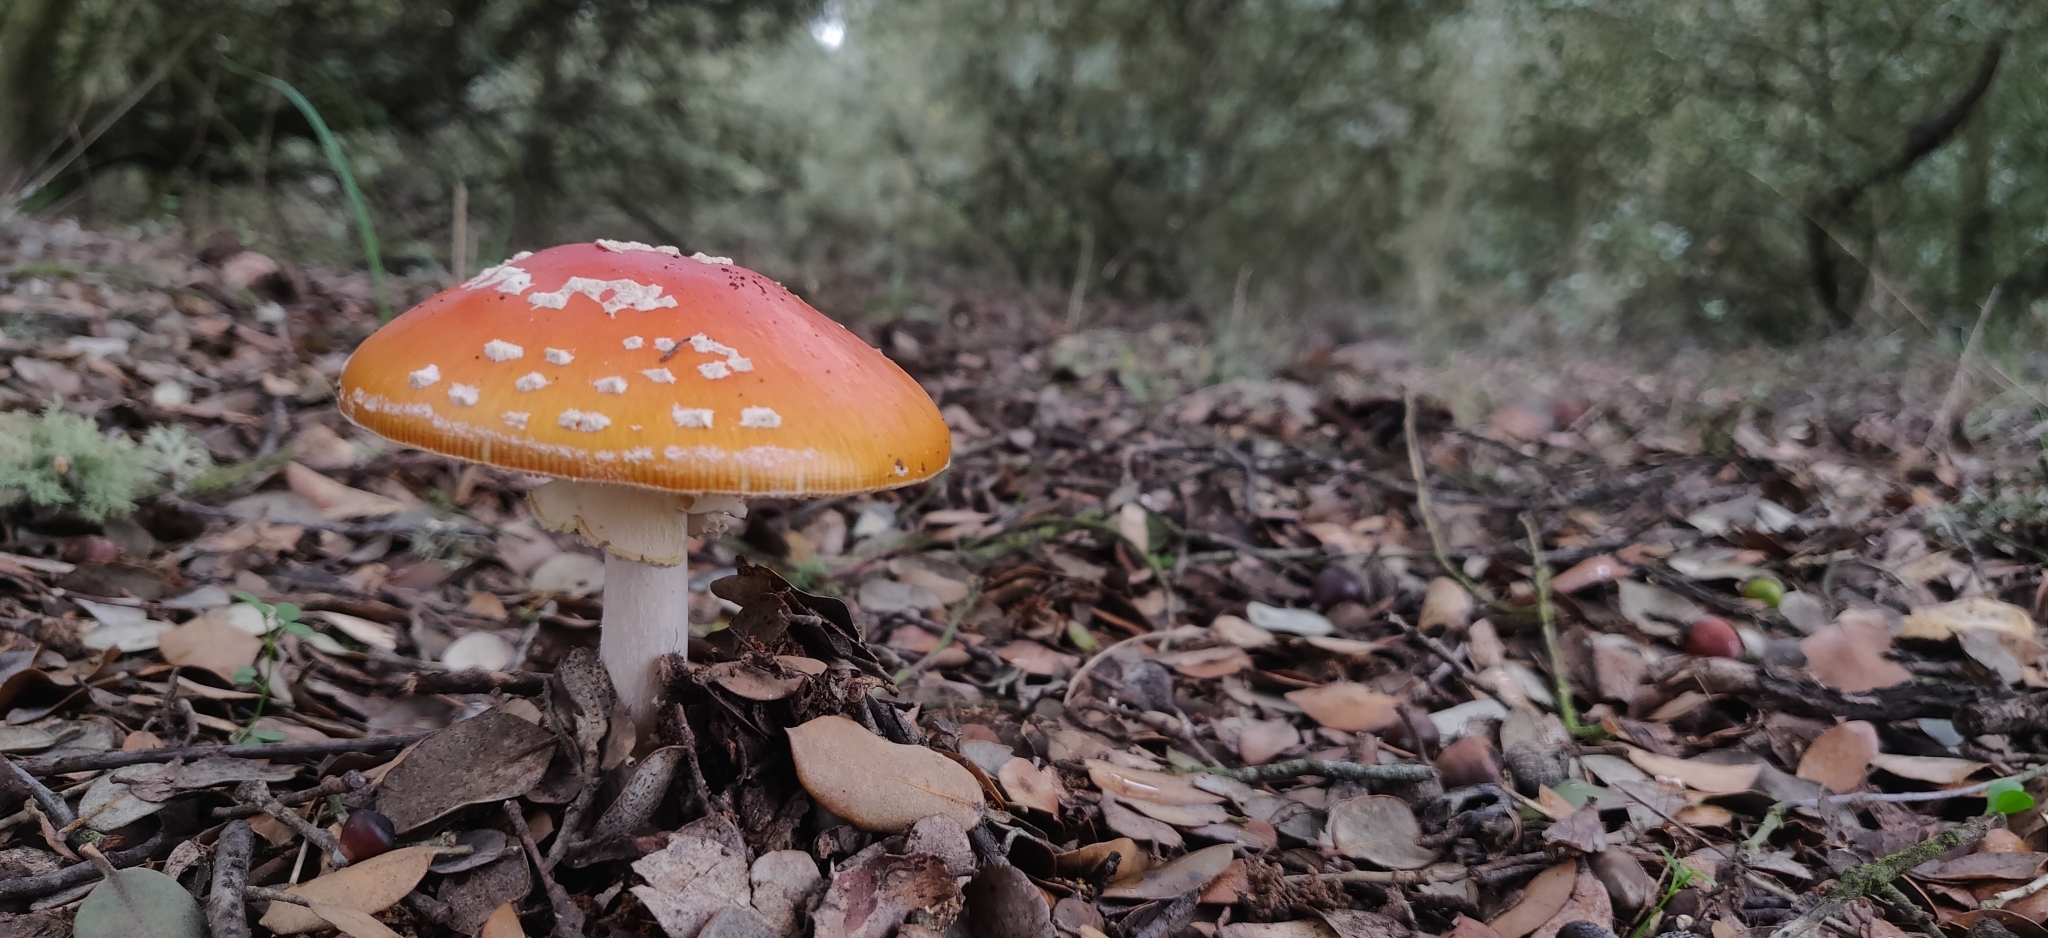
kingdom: Fungi
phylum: Basidiomycota
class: Agaricomycetes
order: Agaricales
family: Amanitaceae
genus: Amanita
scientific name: Amanita muscaria
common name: Fly agaric
